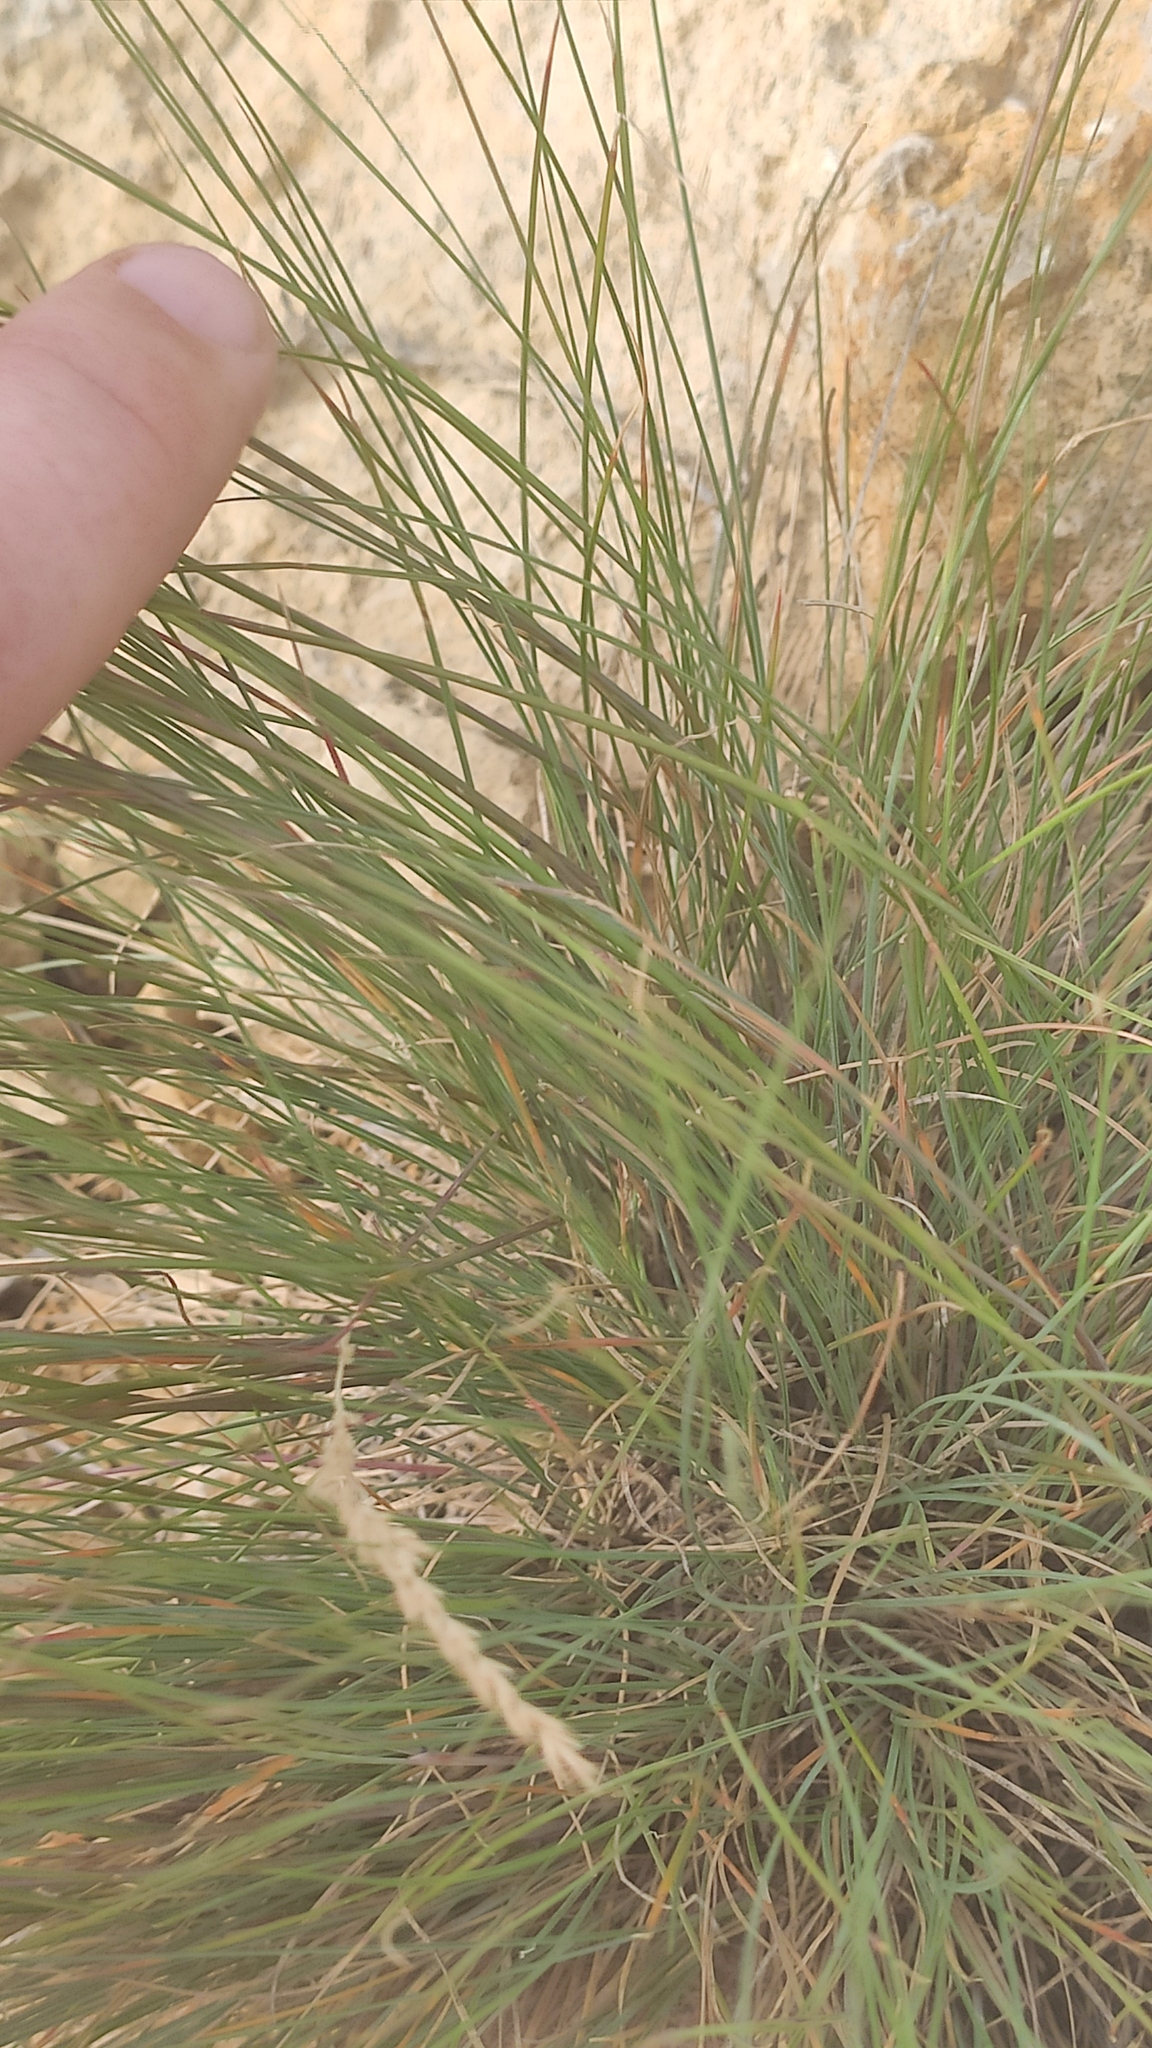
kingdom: Plantae
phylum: Tracheophyta
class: Liliopsida
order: Poales
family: Poaceae
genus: Festuca
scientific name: Festuca rupicola
